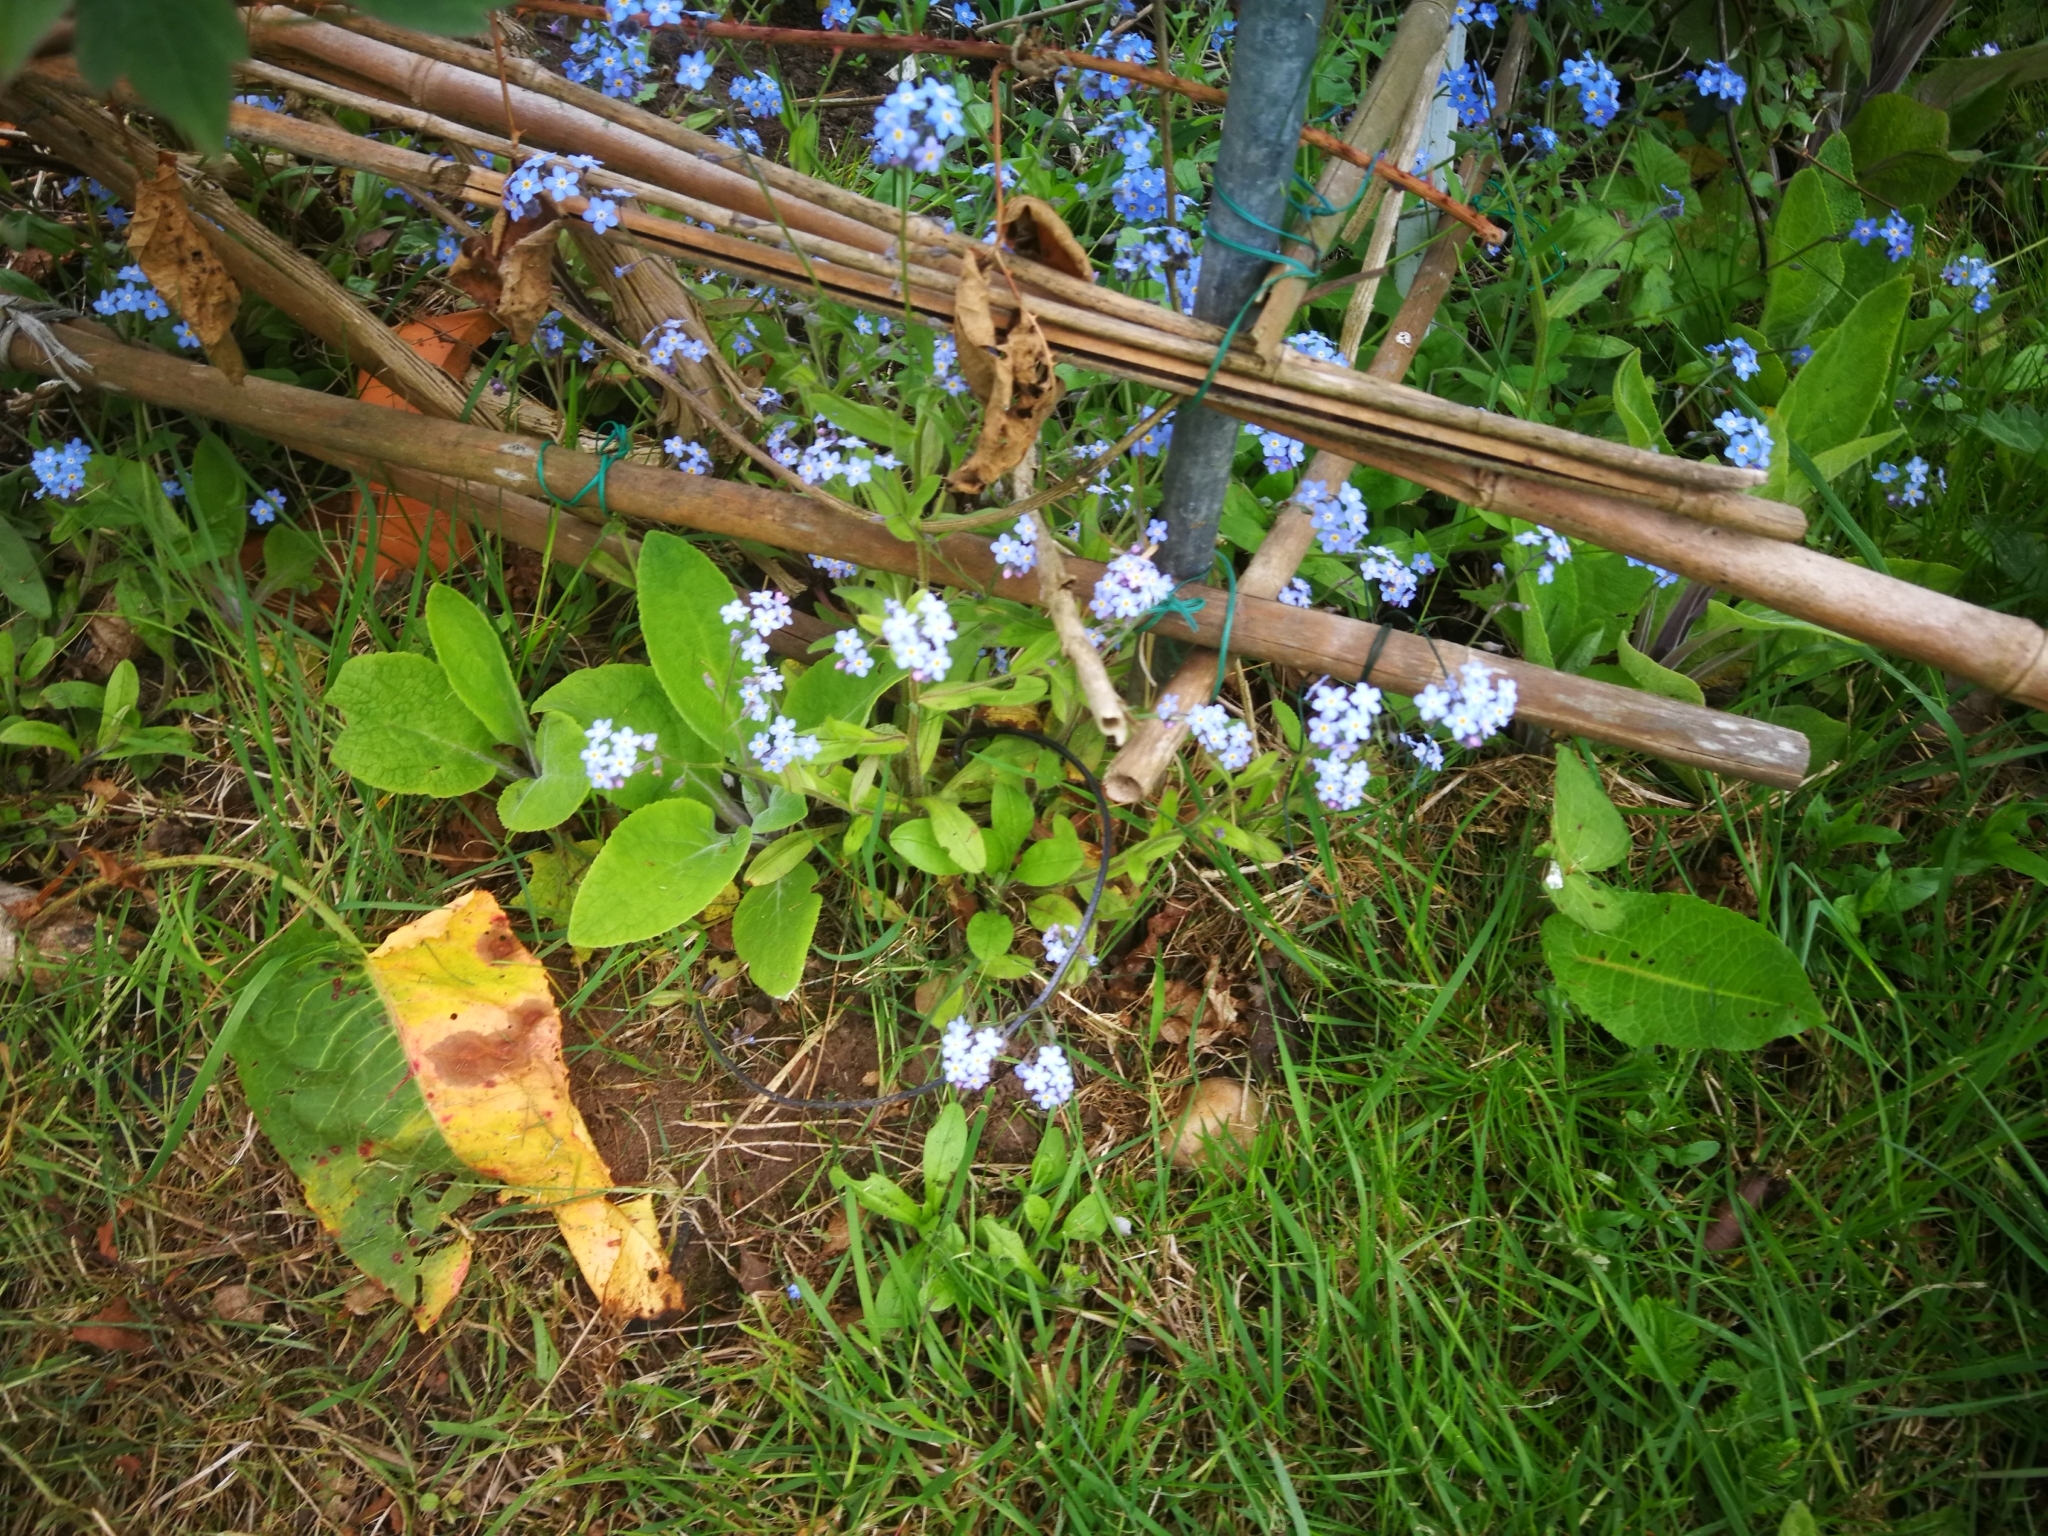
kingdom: Plantae
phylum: Tracheophyta
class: Magnoliopsida
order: Boraginales
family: Boraginaceae
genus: Myosotis
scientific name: Myosotis sylvatica
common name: Wood forget-me-not
